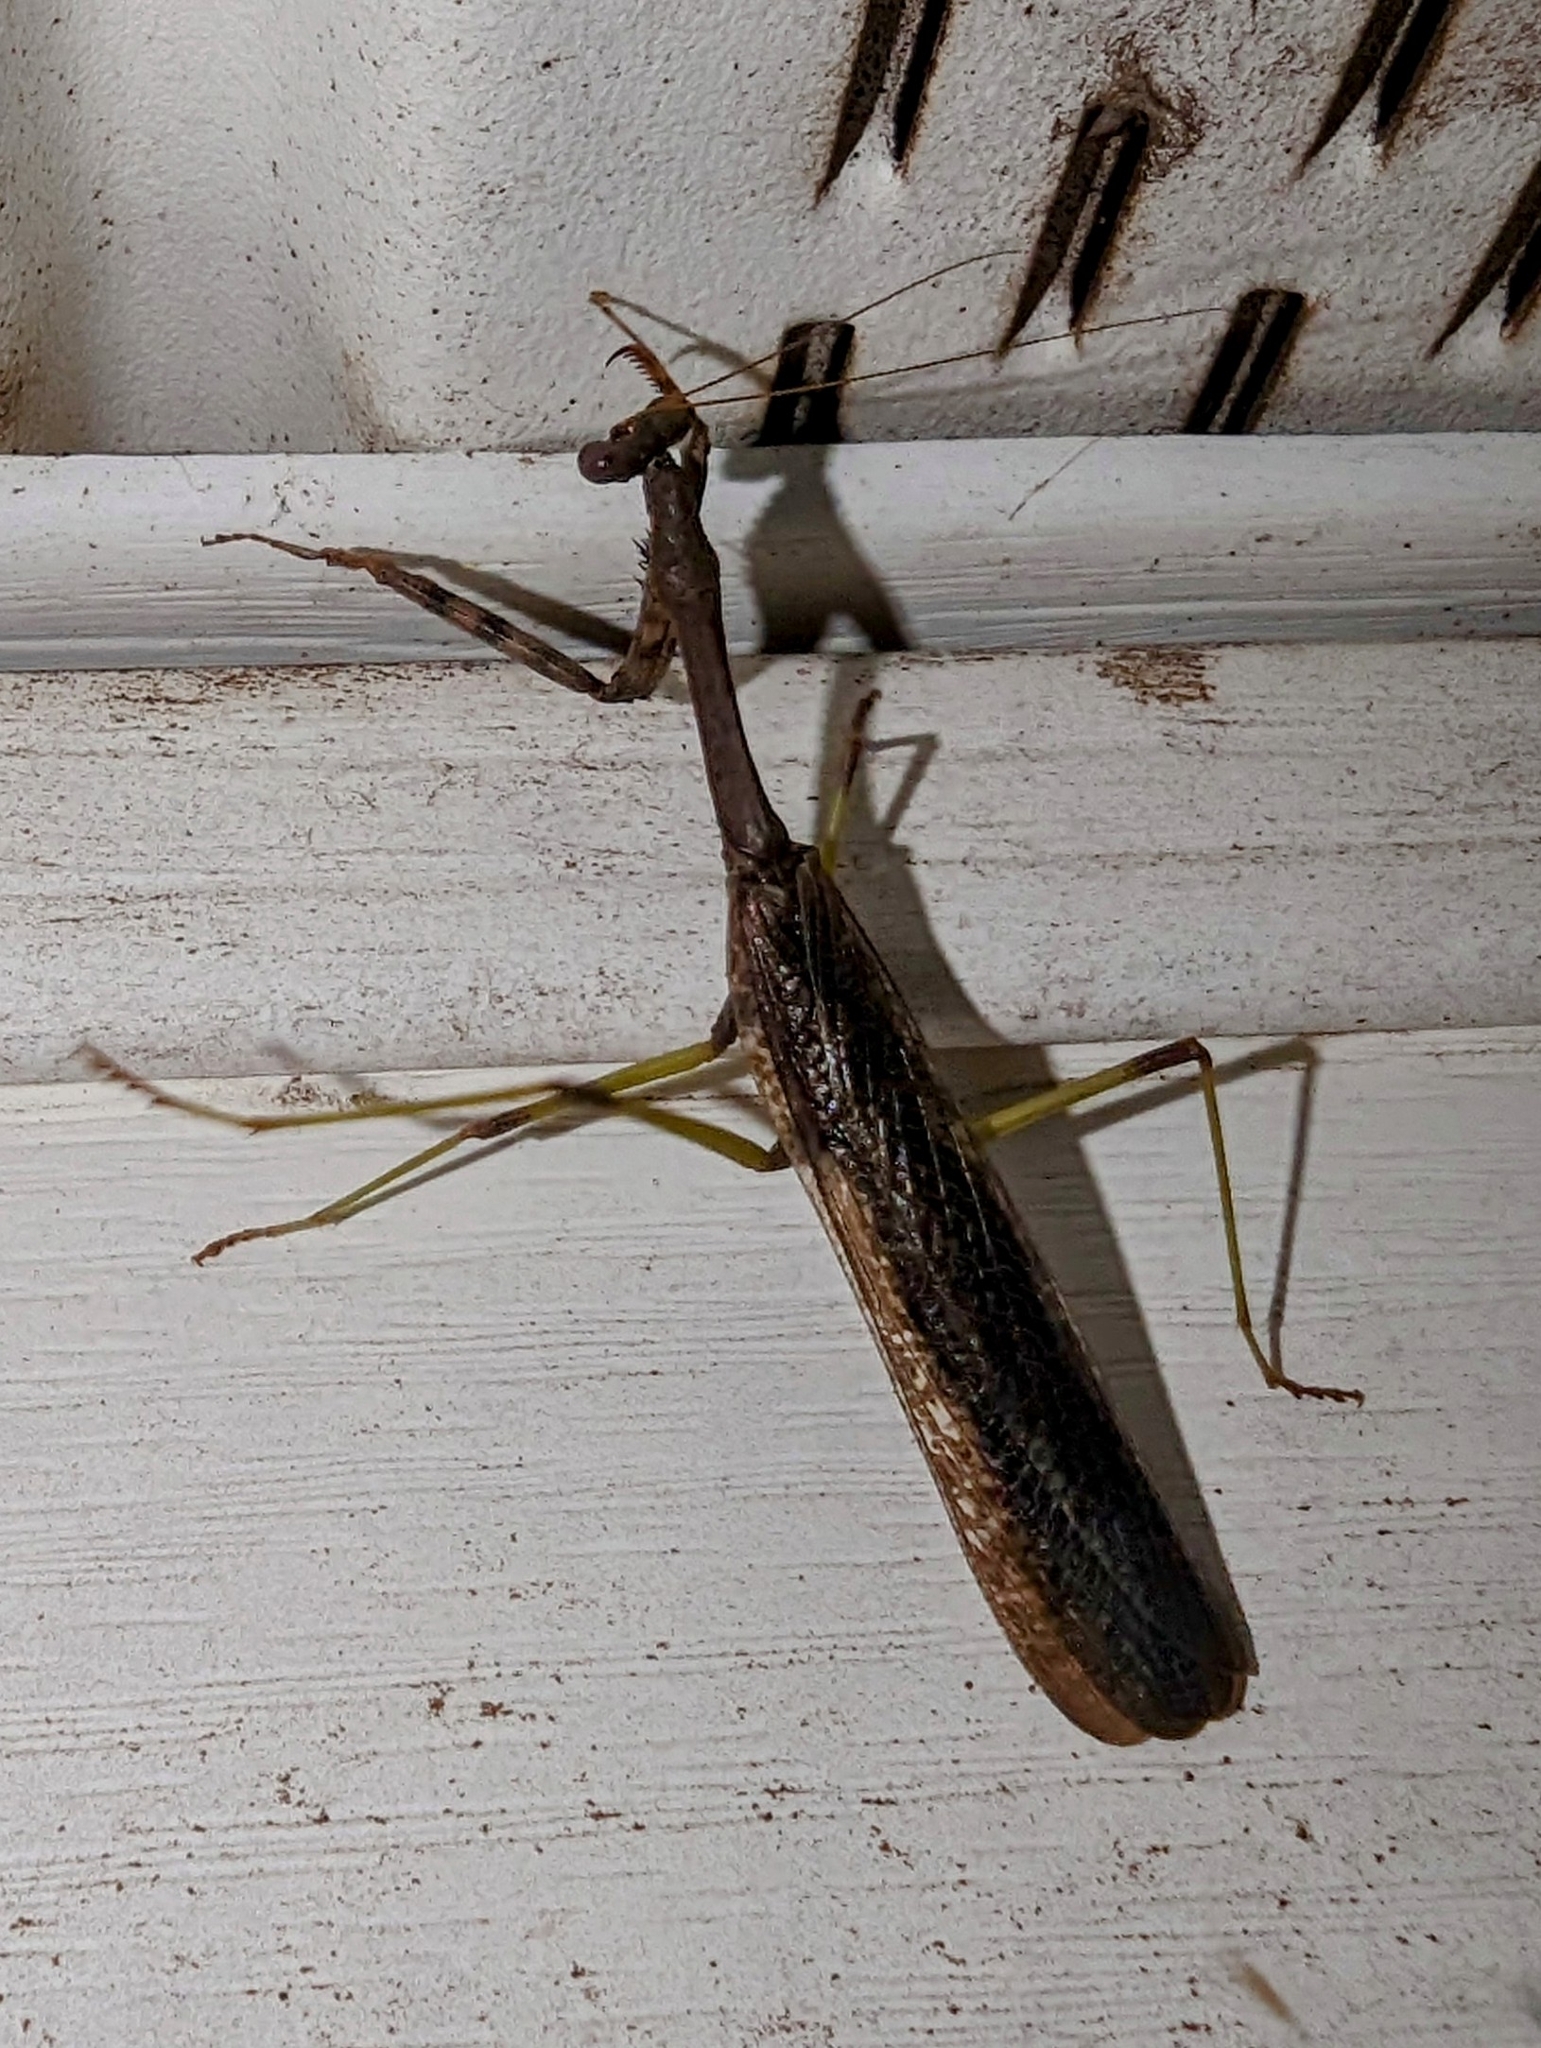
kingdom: Animalia
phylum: Arthropoda
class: Insecta
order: Mantodea
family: Mantidae
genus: Stagmomantis
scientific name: Stagmomantis carolina
